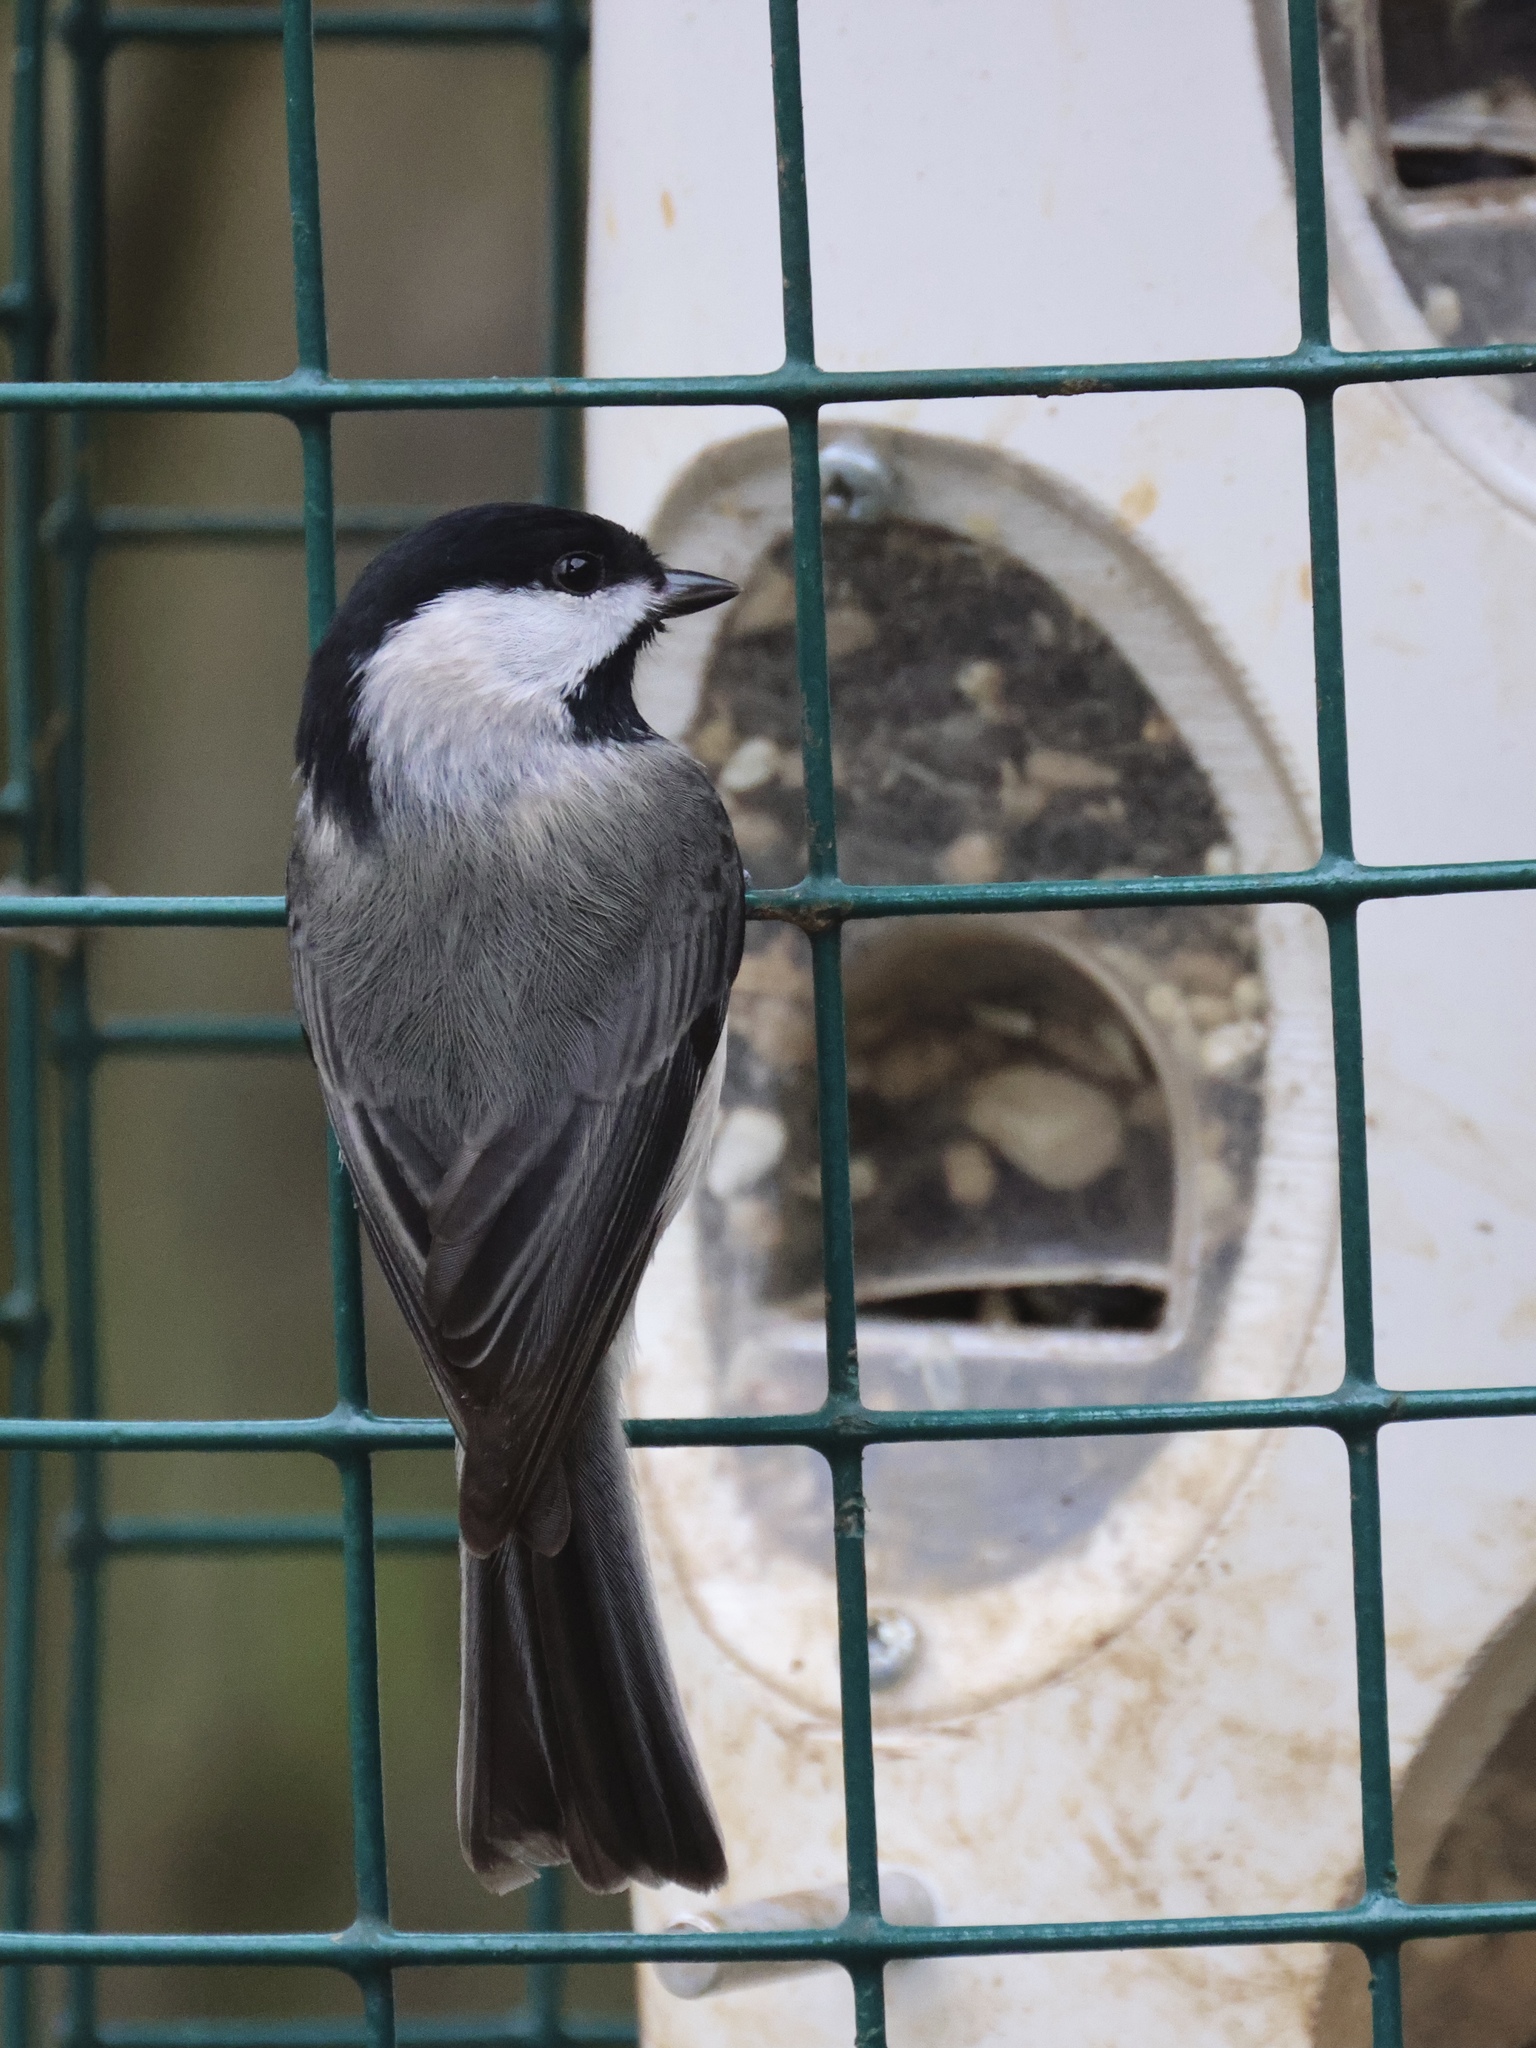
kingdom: Animalia
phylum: Chordata
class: Aves
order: Passeriformes
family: Paridae
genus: Poecile
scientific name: Poecile carolinensis
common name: Carolina chickadee
